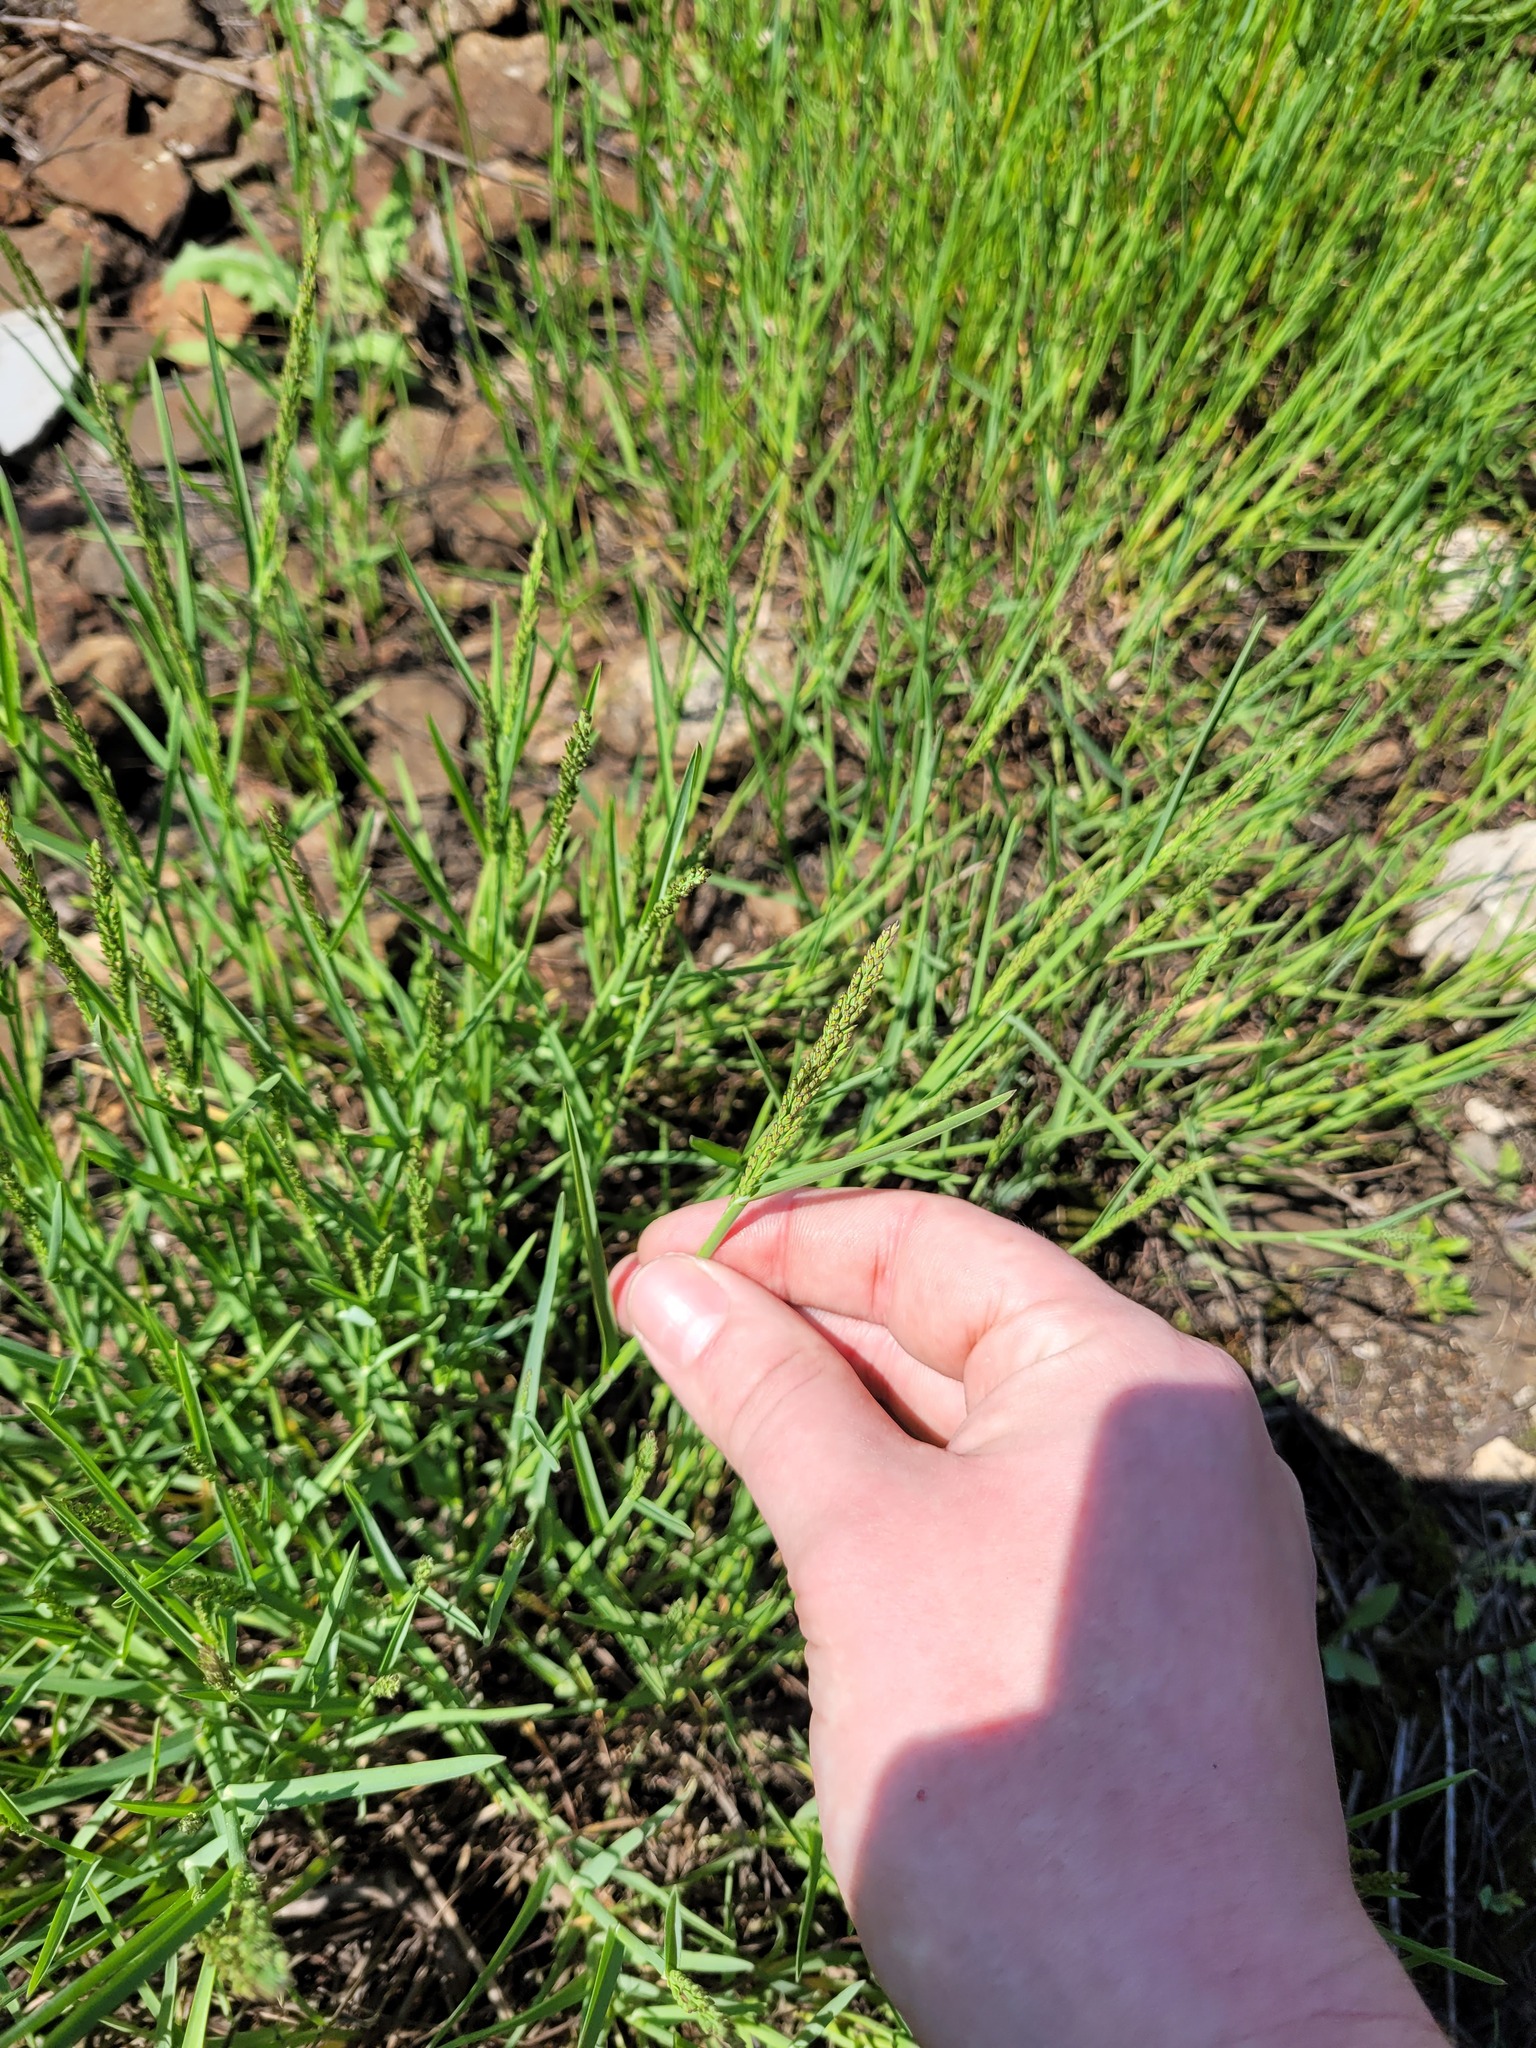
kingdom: Plantae
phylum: Tracheophyta
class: Liliopsida
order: Poales
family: Poaceae
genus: Poa
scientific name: Poa compressa
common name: Canada bluegrass
